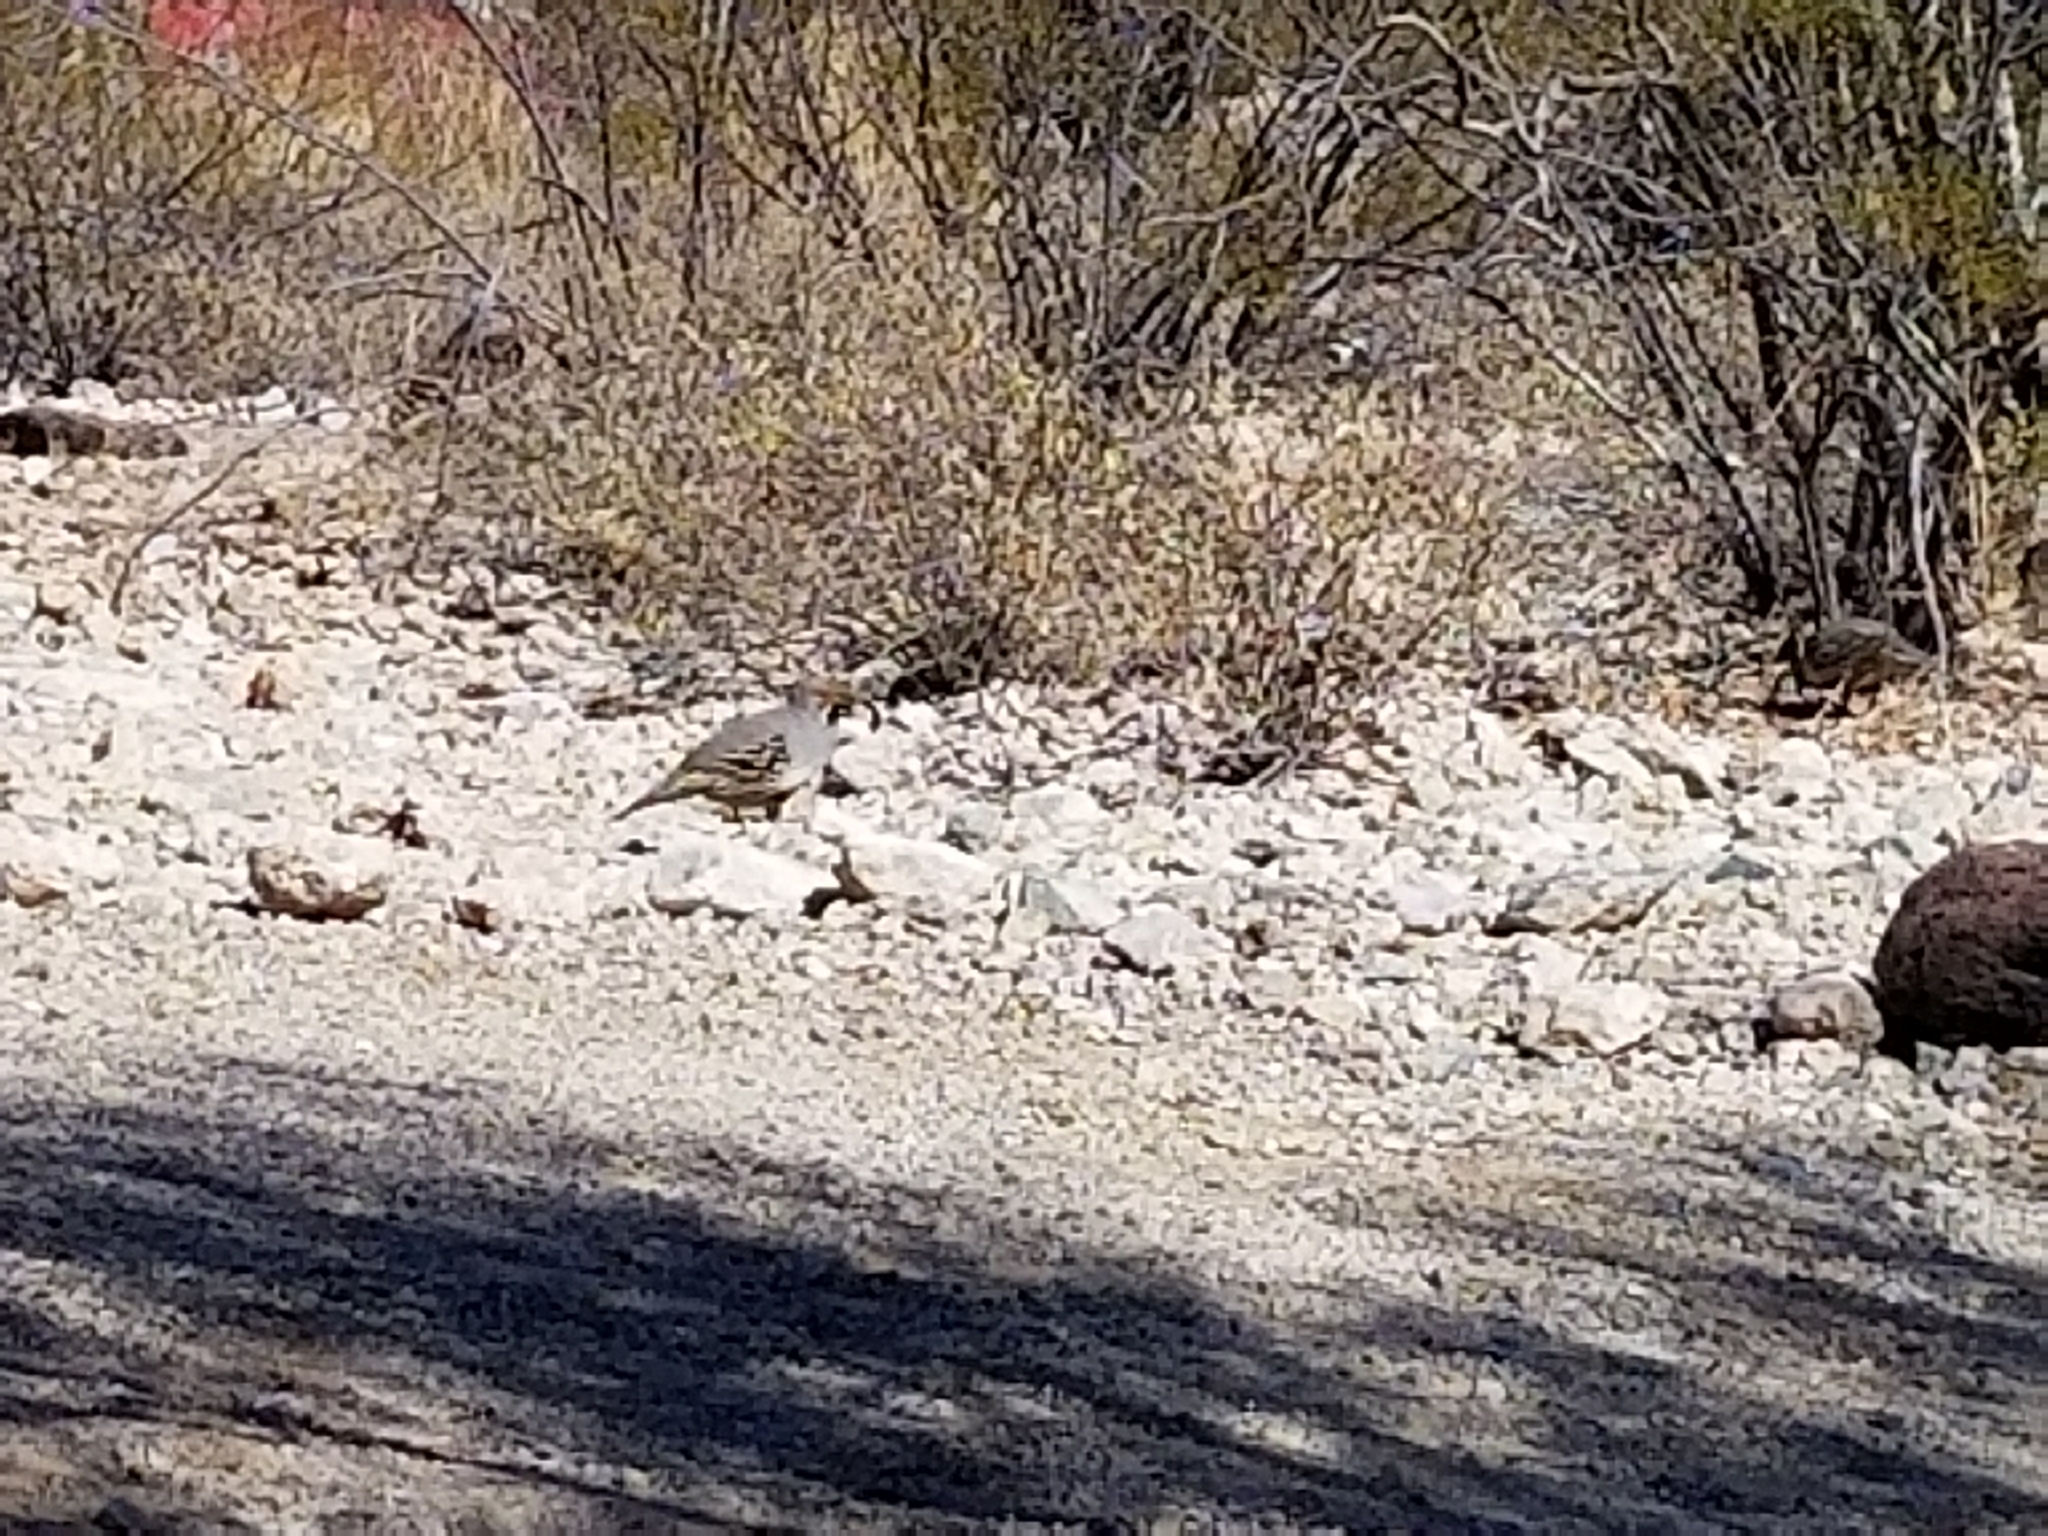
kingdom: Animalia
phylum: Chordata
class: Aves
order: Galliformes
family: Odontophoridae
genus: Callipepla
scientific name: Callipepla gambelii
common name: Gambel's quail
